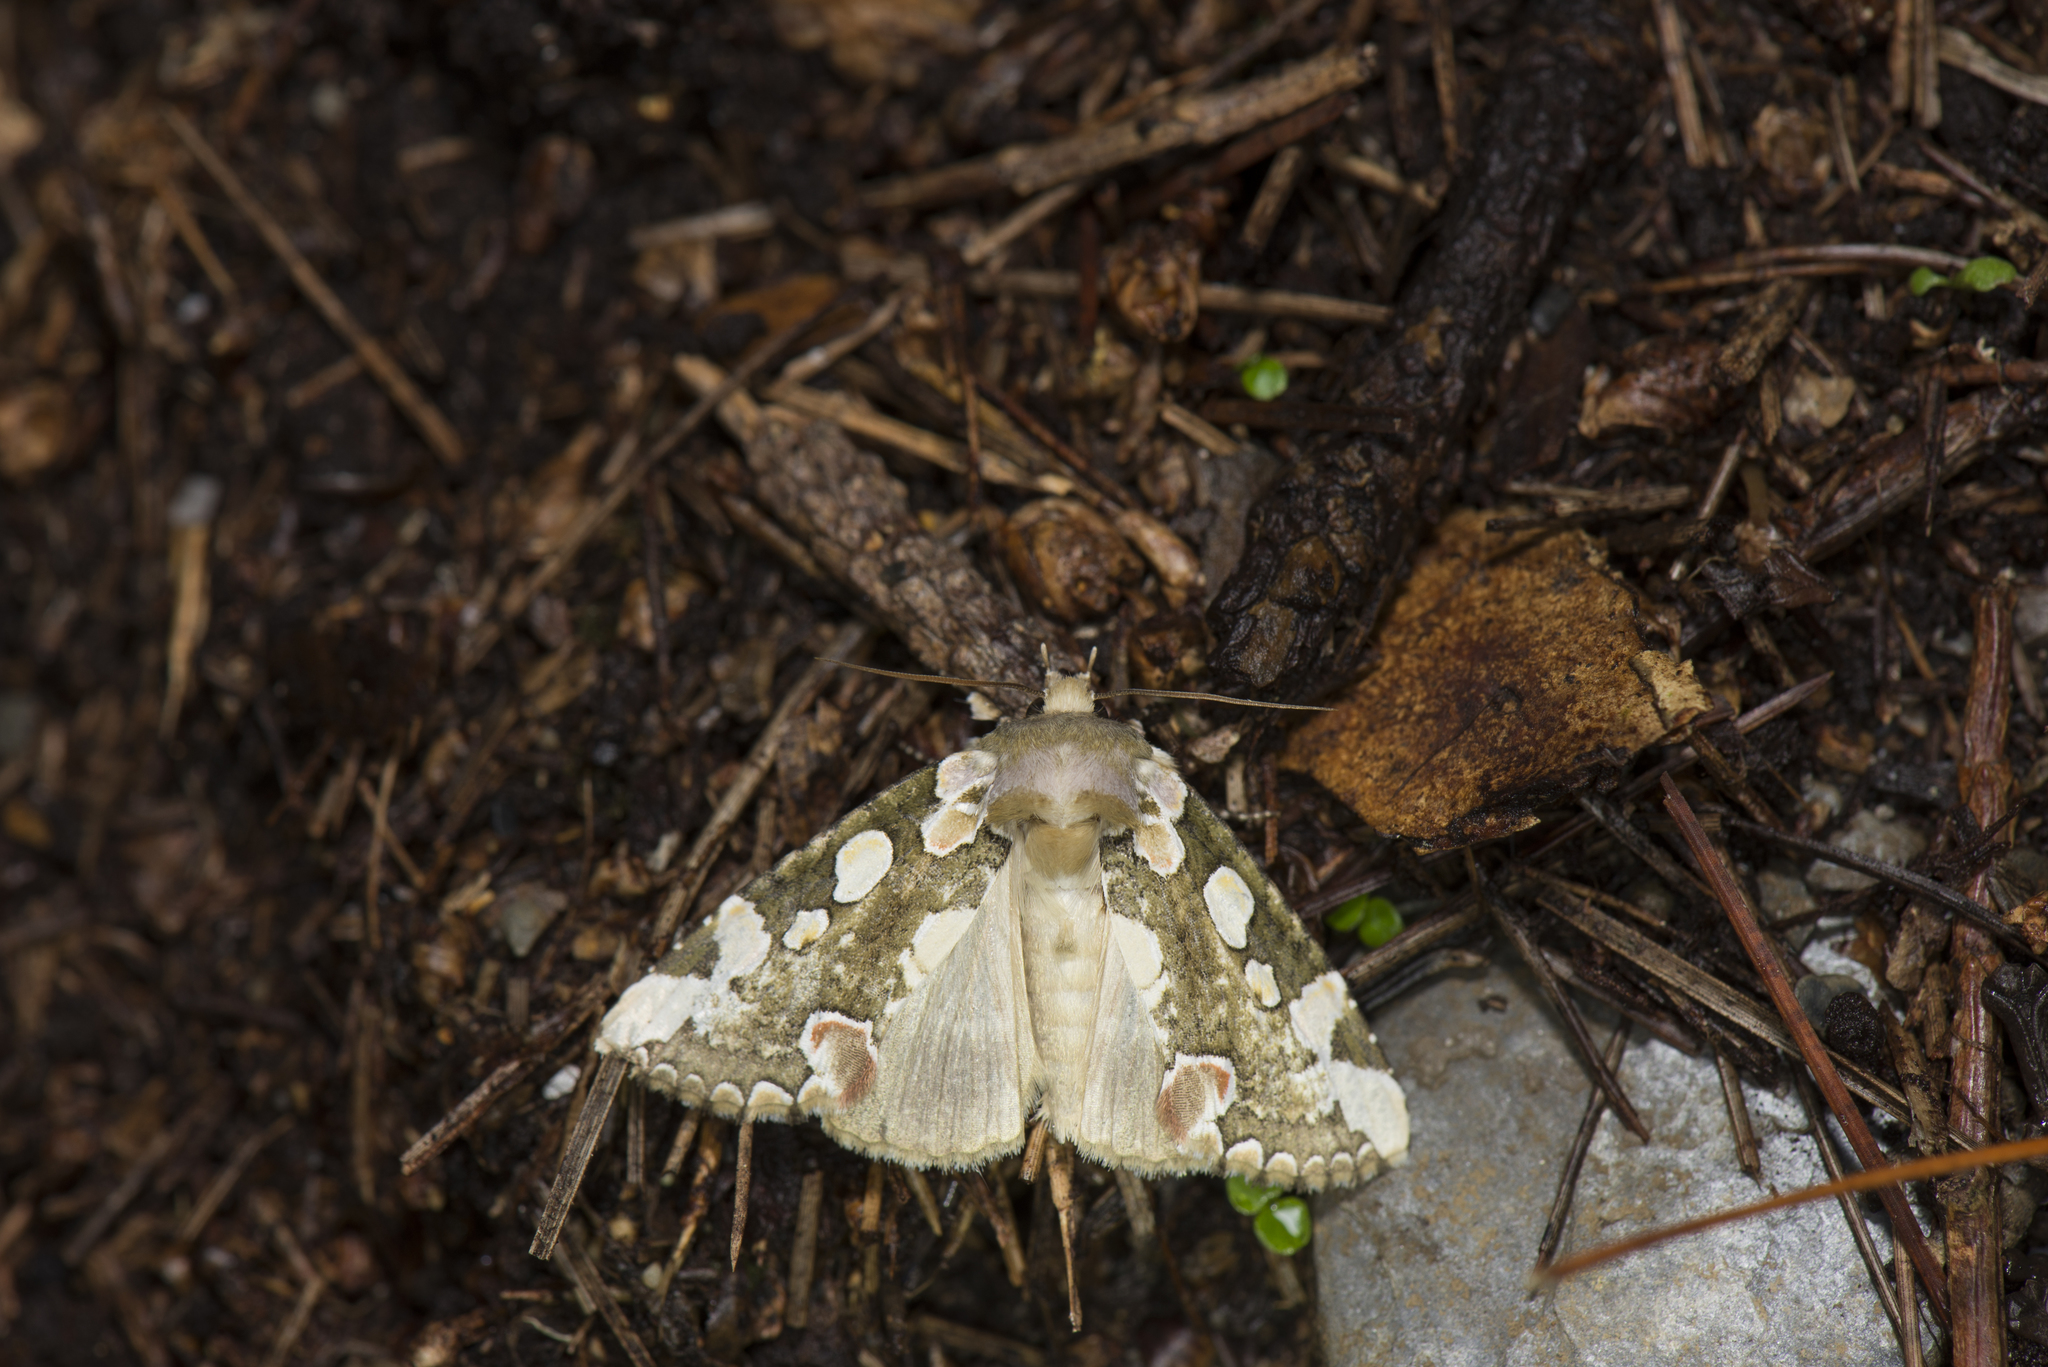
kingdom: Animalia
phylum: Arthropoda
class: Insecta
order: Lepidoptera
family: Drepanidae
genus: Horithyatira
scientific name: Horithyatira decorata
